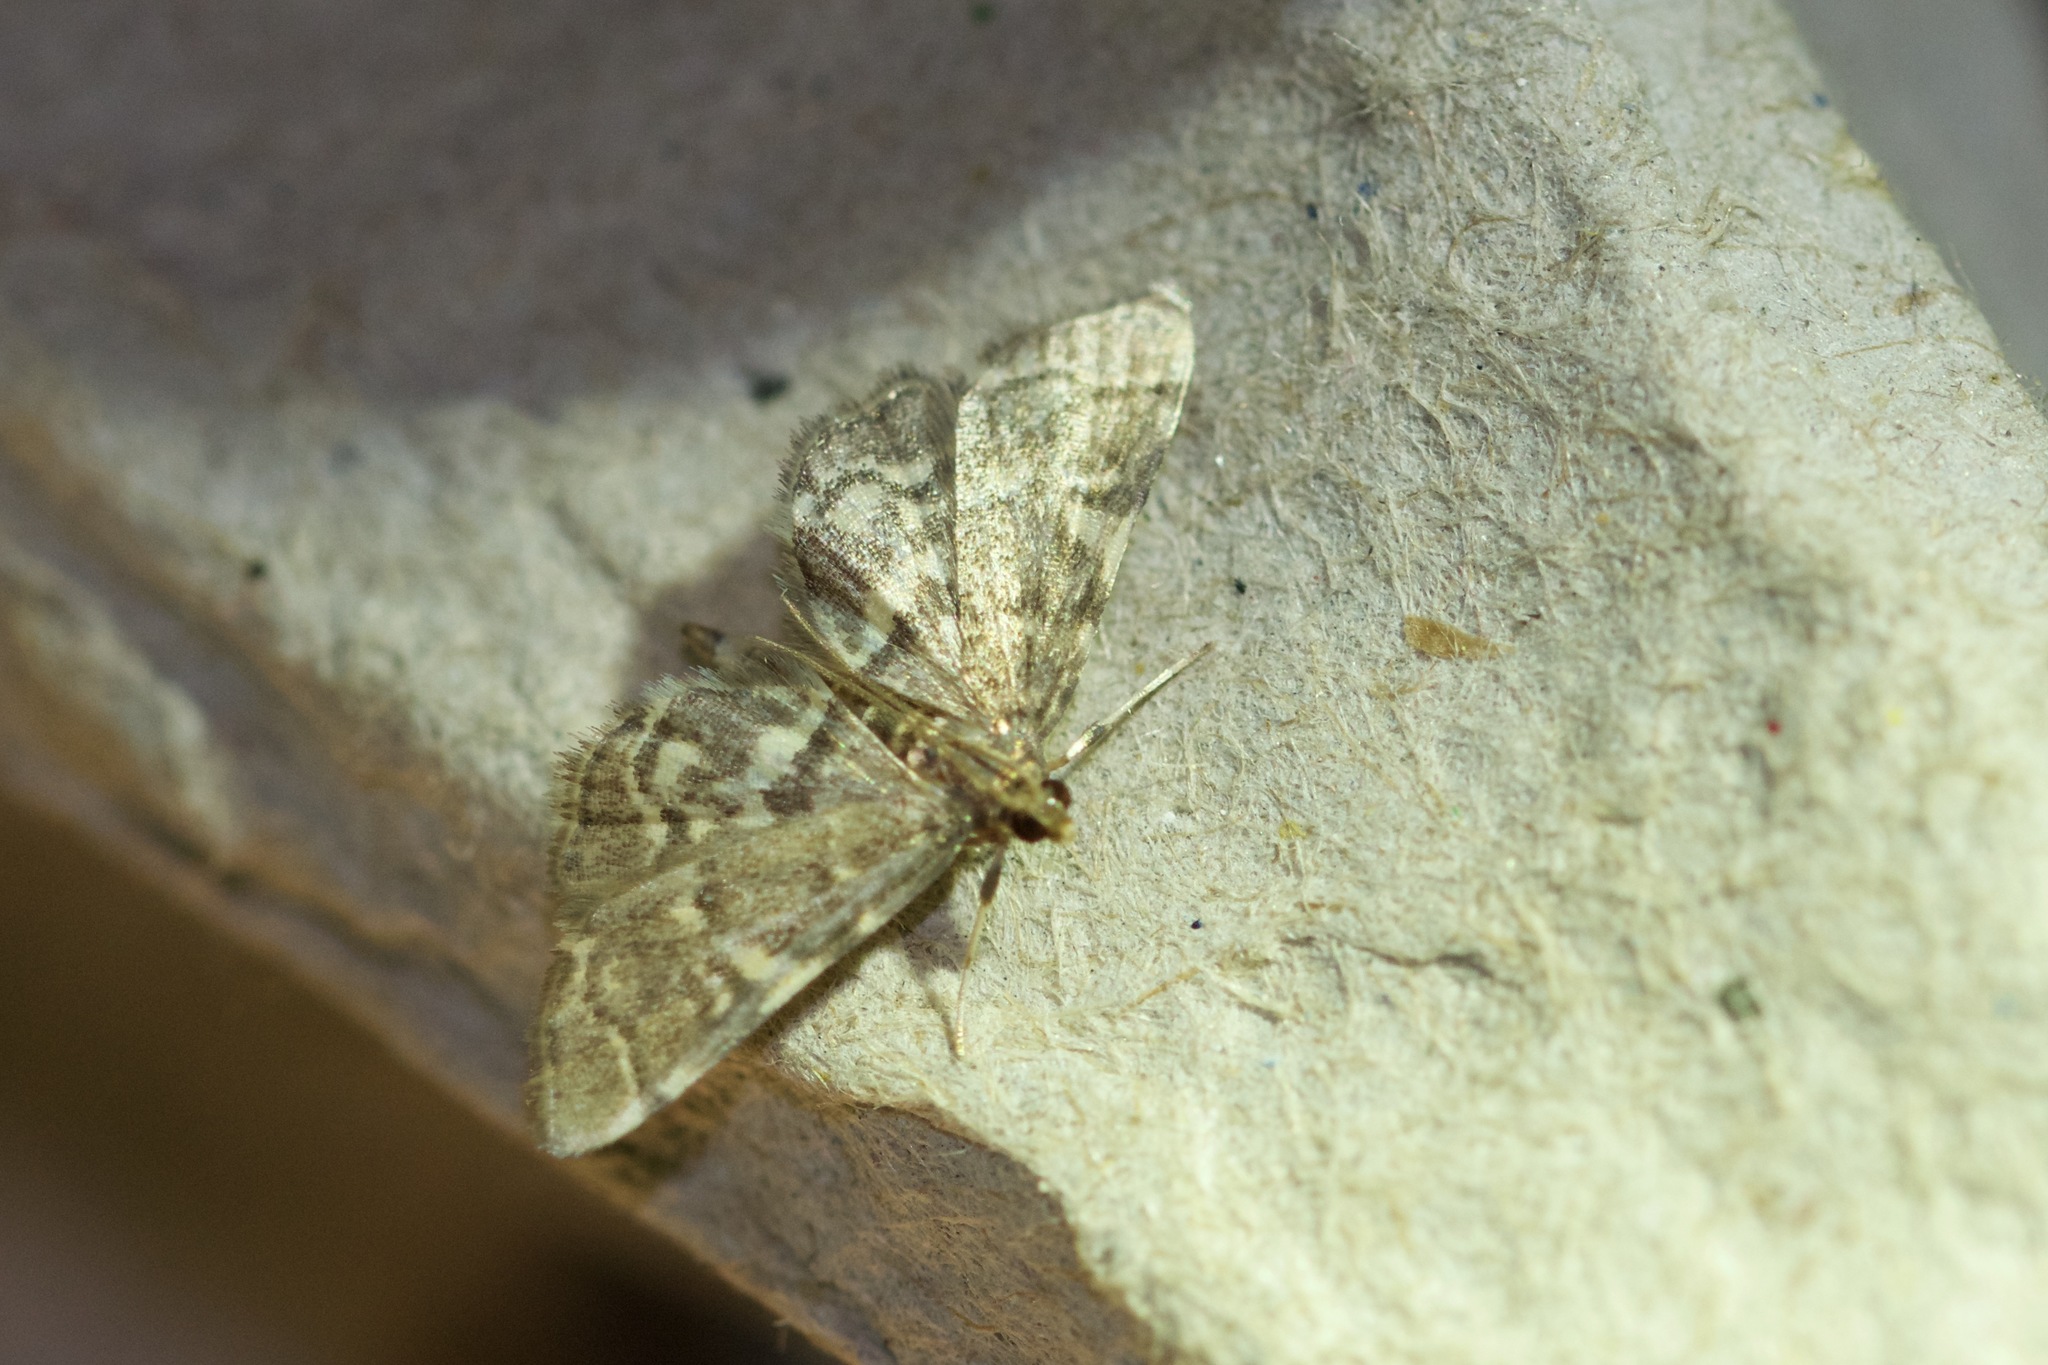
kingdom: Animalia
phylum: Arthropoda
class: Insecta
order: Lepidoptera
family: Crambidae
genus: Anageshna
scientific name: Anageshna primordialis
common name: Yellow-spotted webworm moth
